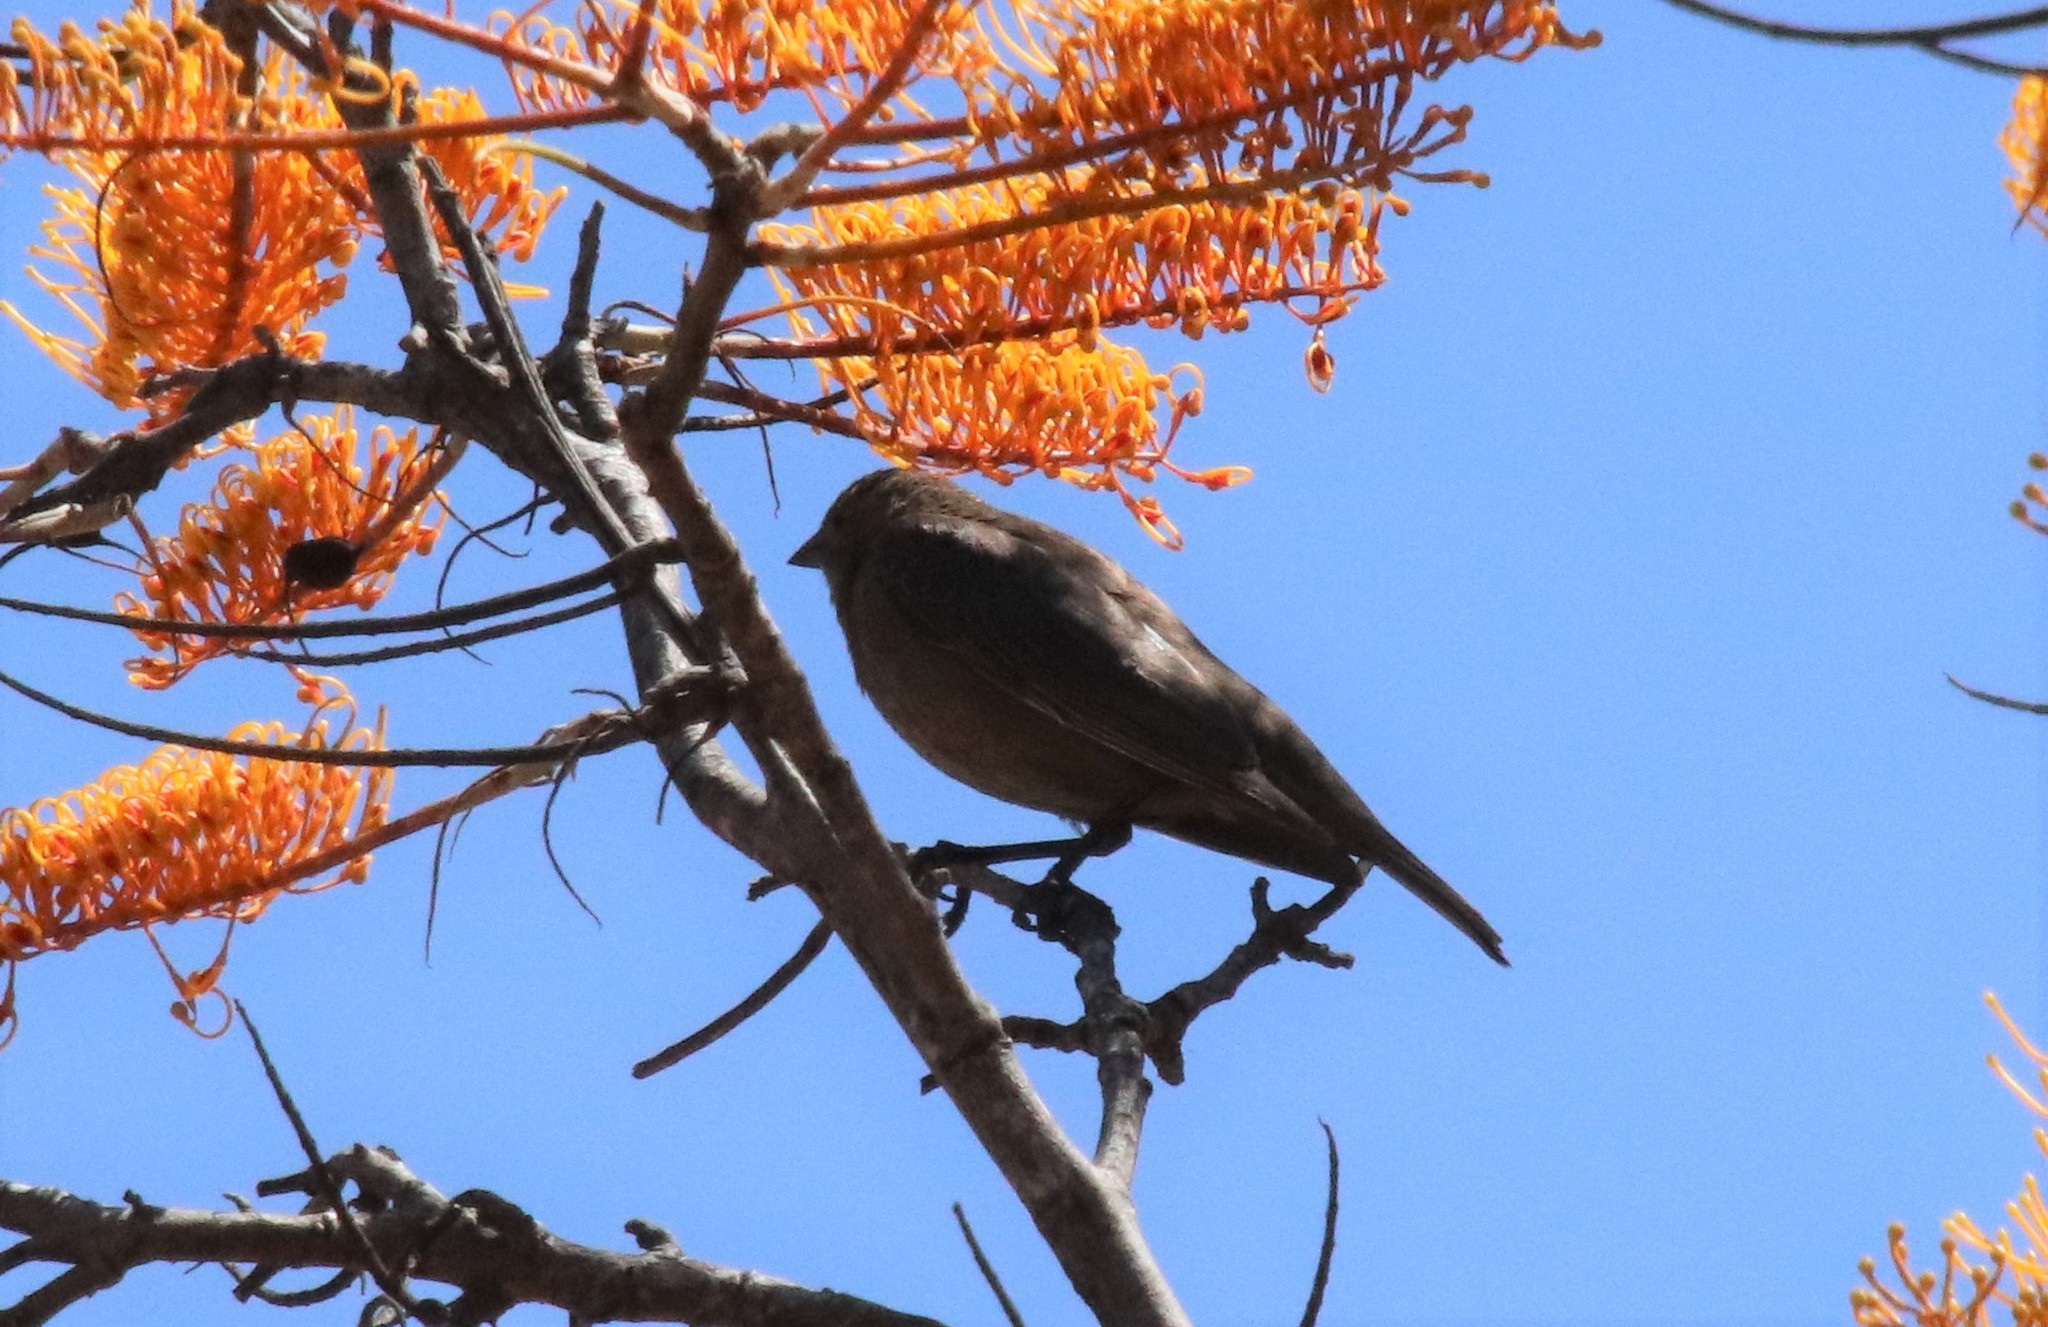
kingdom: Animalia
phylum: Chordata
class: Aves
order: Passeriformes
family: Icteridae
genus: Molothrus
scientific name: Molothrus ater
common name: Brown-headed cowbird
